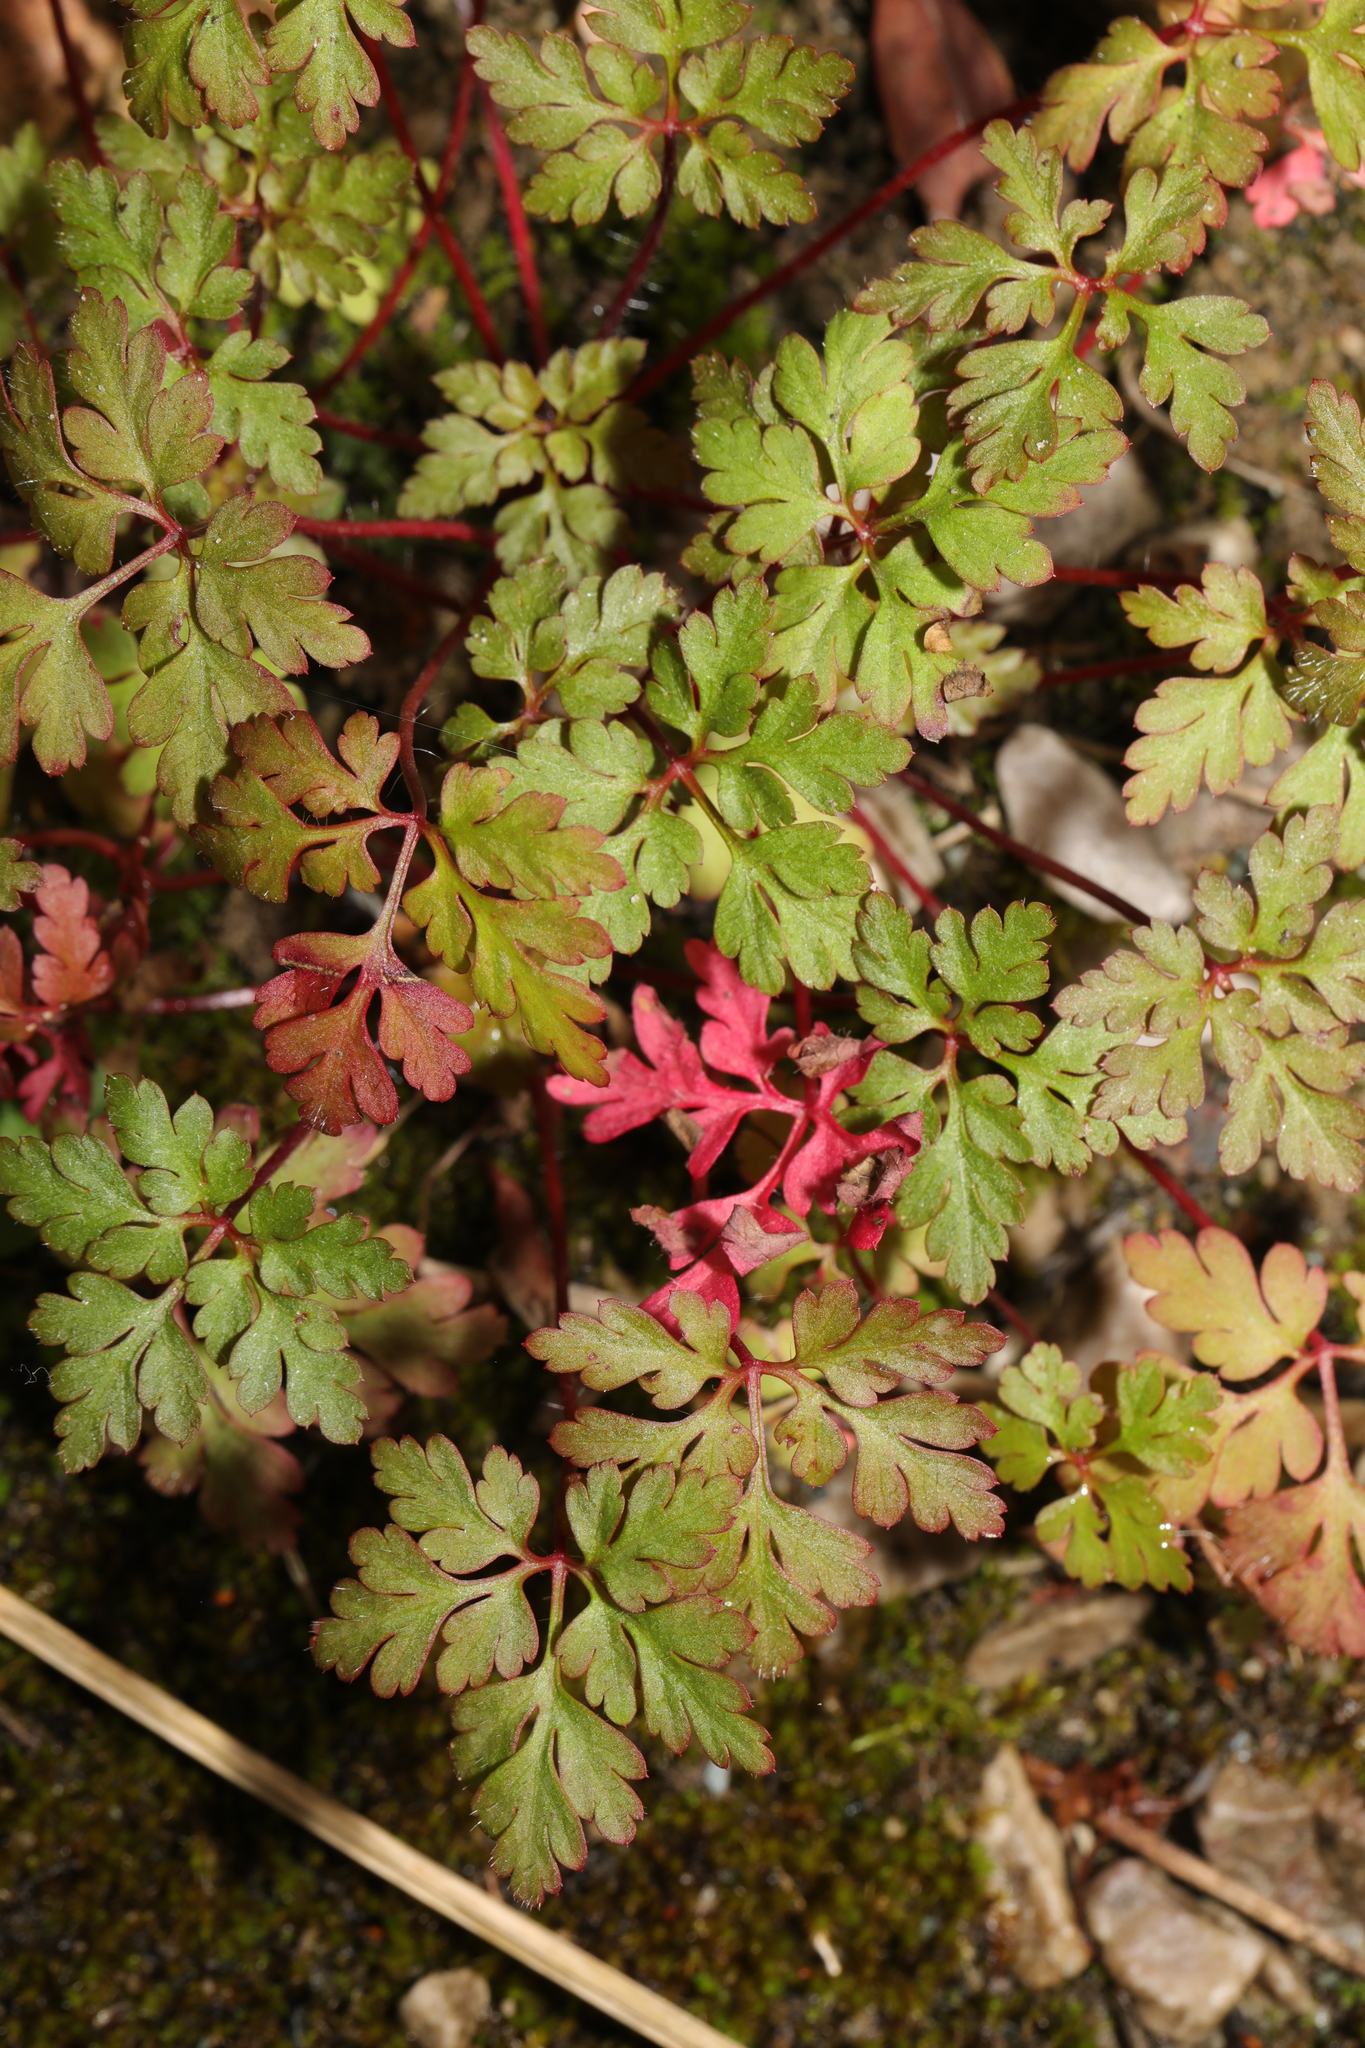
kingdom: Plantae
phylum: Tracheophyta
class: Magnoliopsida
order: Geraniales
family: Geraniaceae
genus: Geranium
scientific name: Geranium robertianum
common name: Herb-robert
